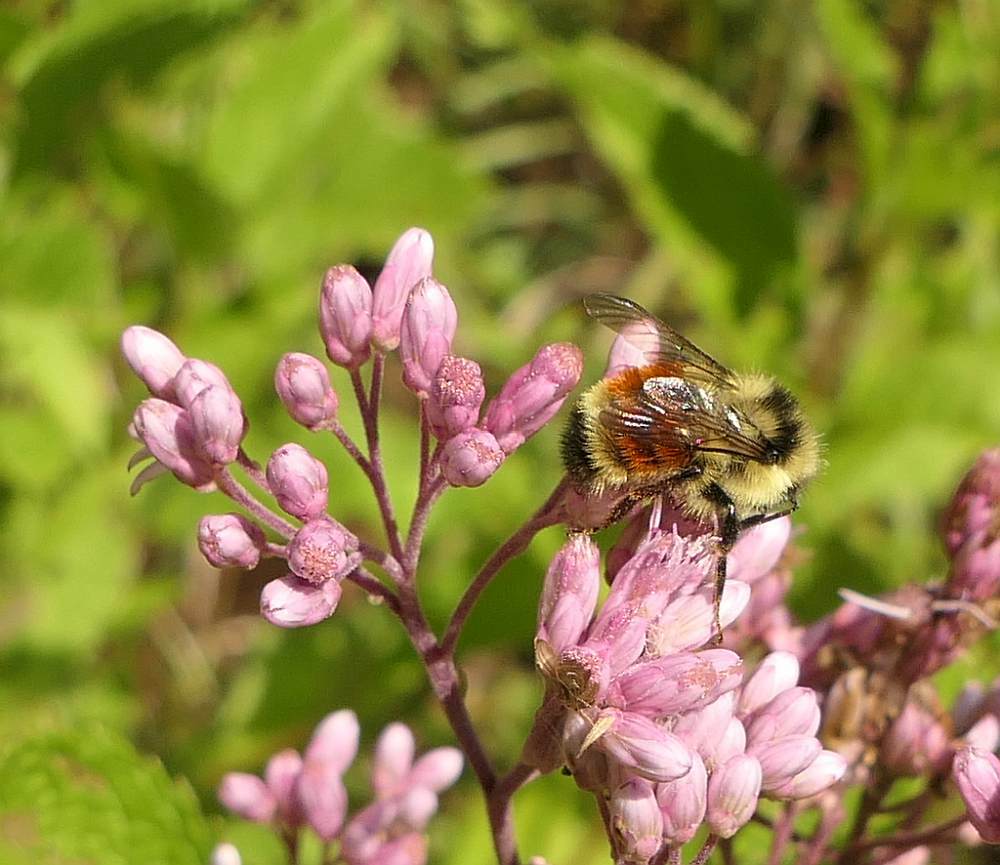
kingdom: Animalia
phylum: Arthropoda
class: Insecta
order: Hymenoptera
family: Apidae
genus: Bombus
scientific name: Bombus ternarius
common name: Tri-colored bumble bee
